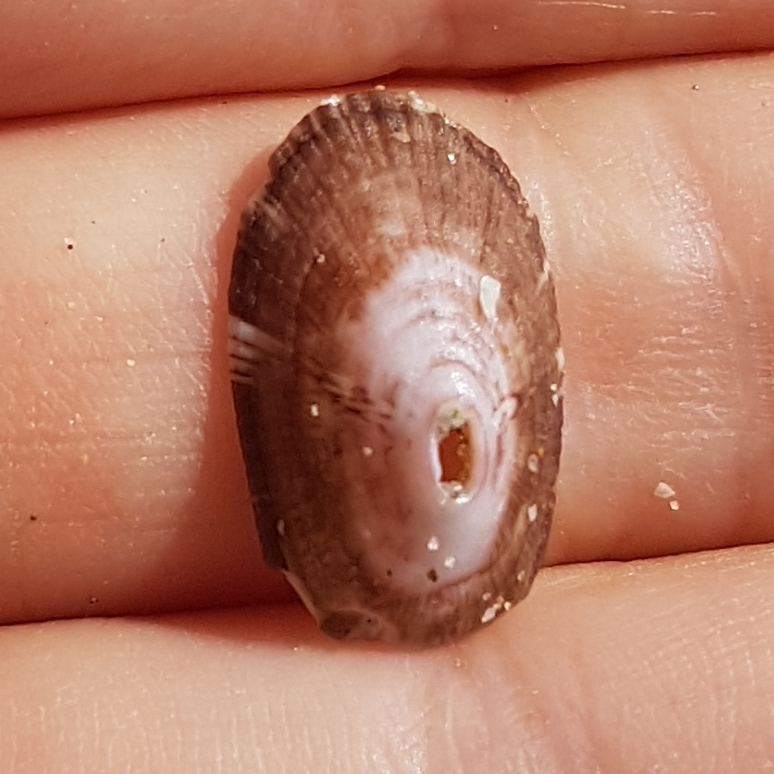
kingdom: Animalia
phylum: Mollusca
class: Gastropoda
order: Lepetellida
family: Fissurellidae
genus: Fissurella
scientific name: Fissurella nubecula
